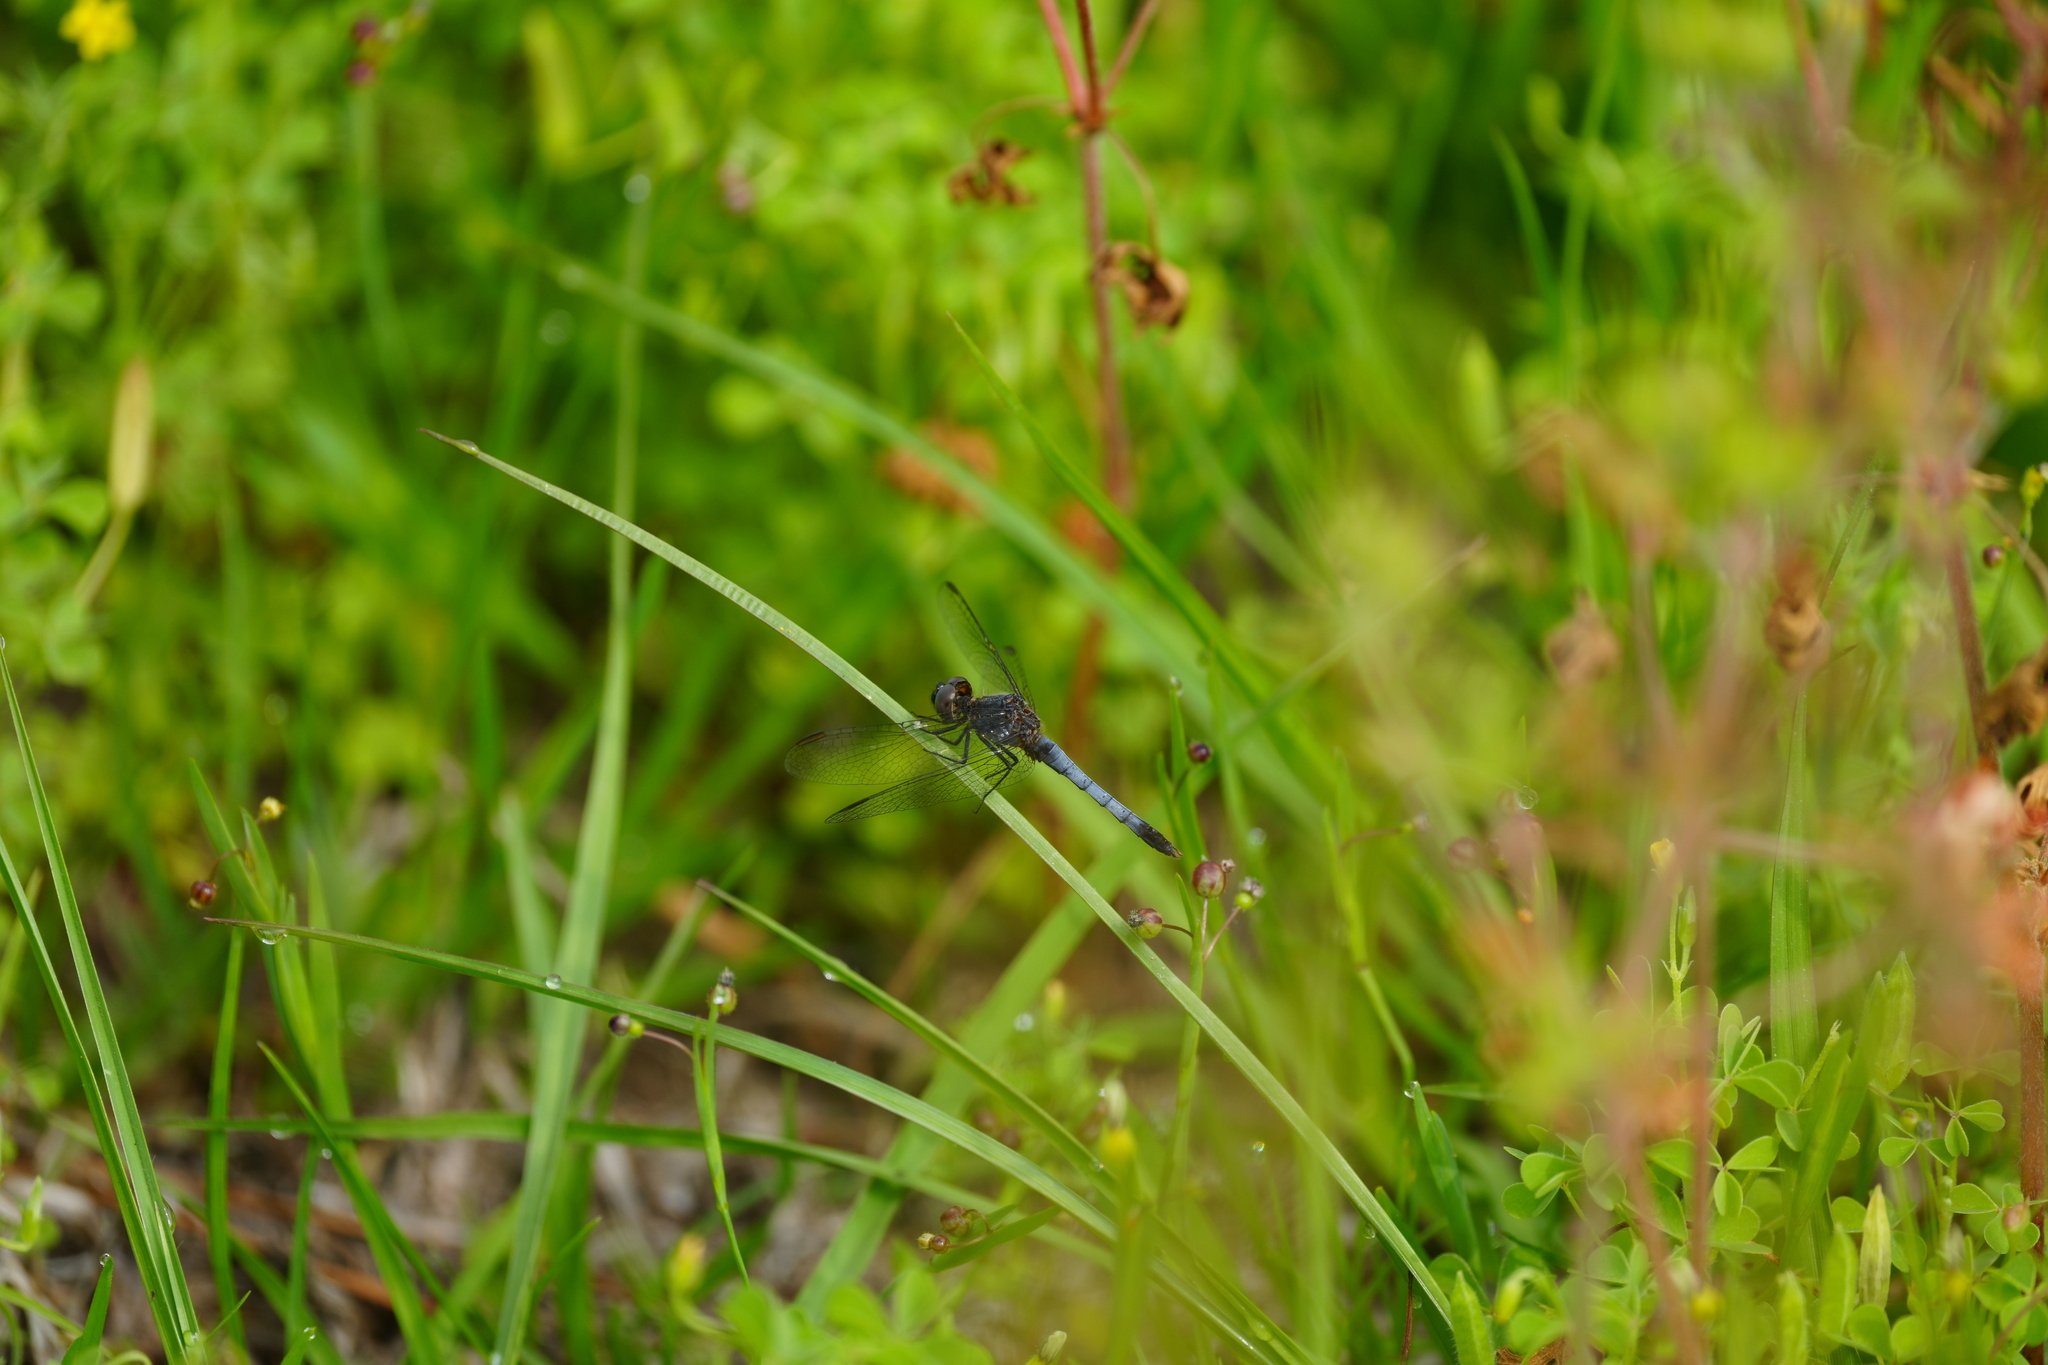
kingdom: Animalia
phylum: Arthropoda
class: Insecta
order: Odonata
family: Libellulidae
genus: Erythrodiplax
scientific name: Erythrodiplax minuscula
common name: Little blue dragonlet
